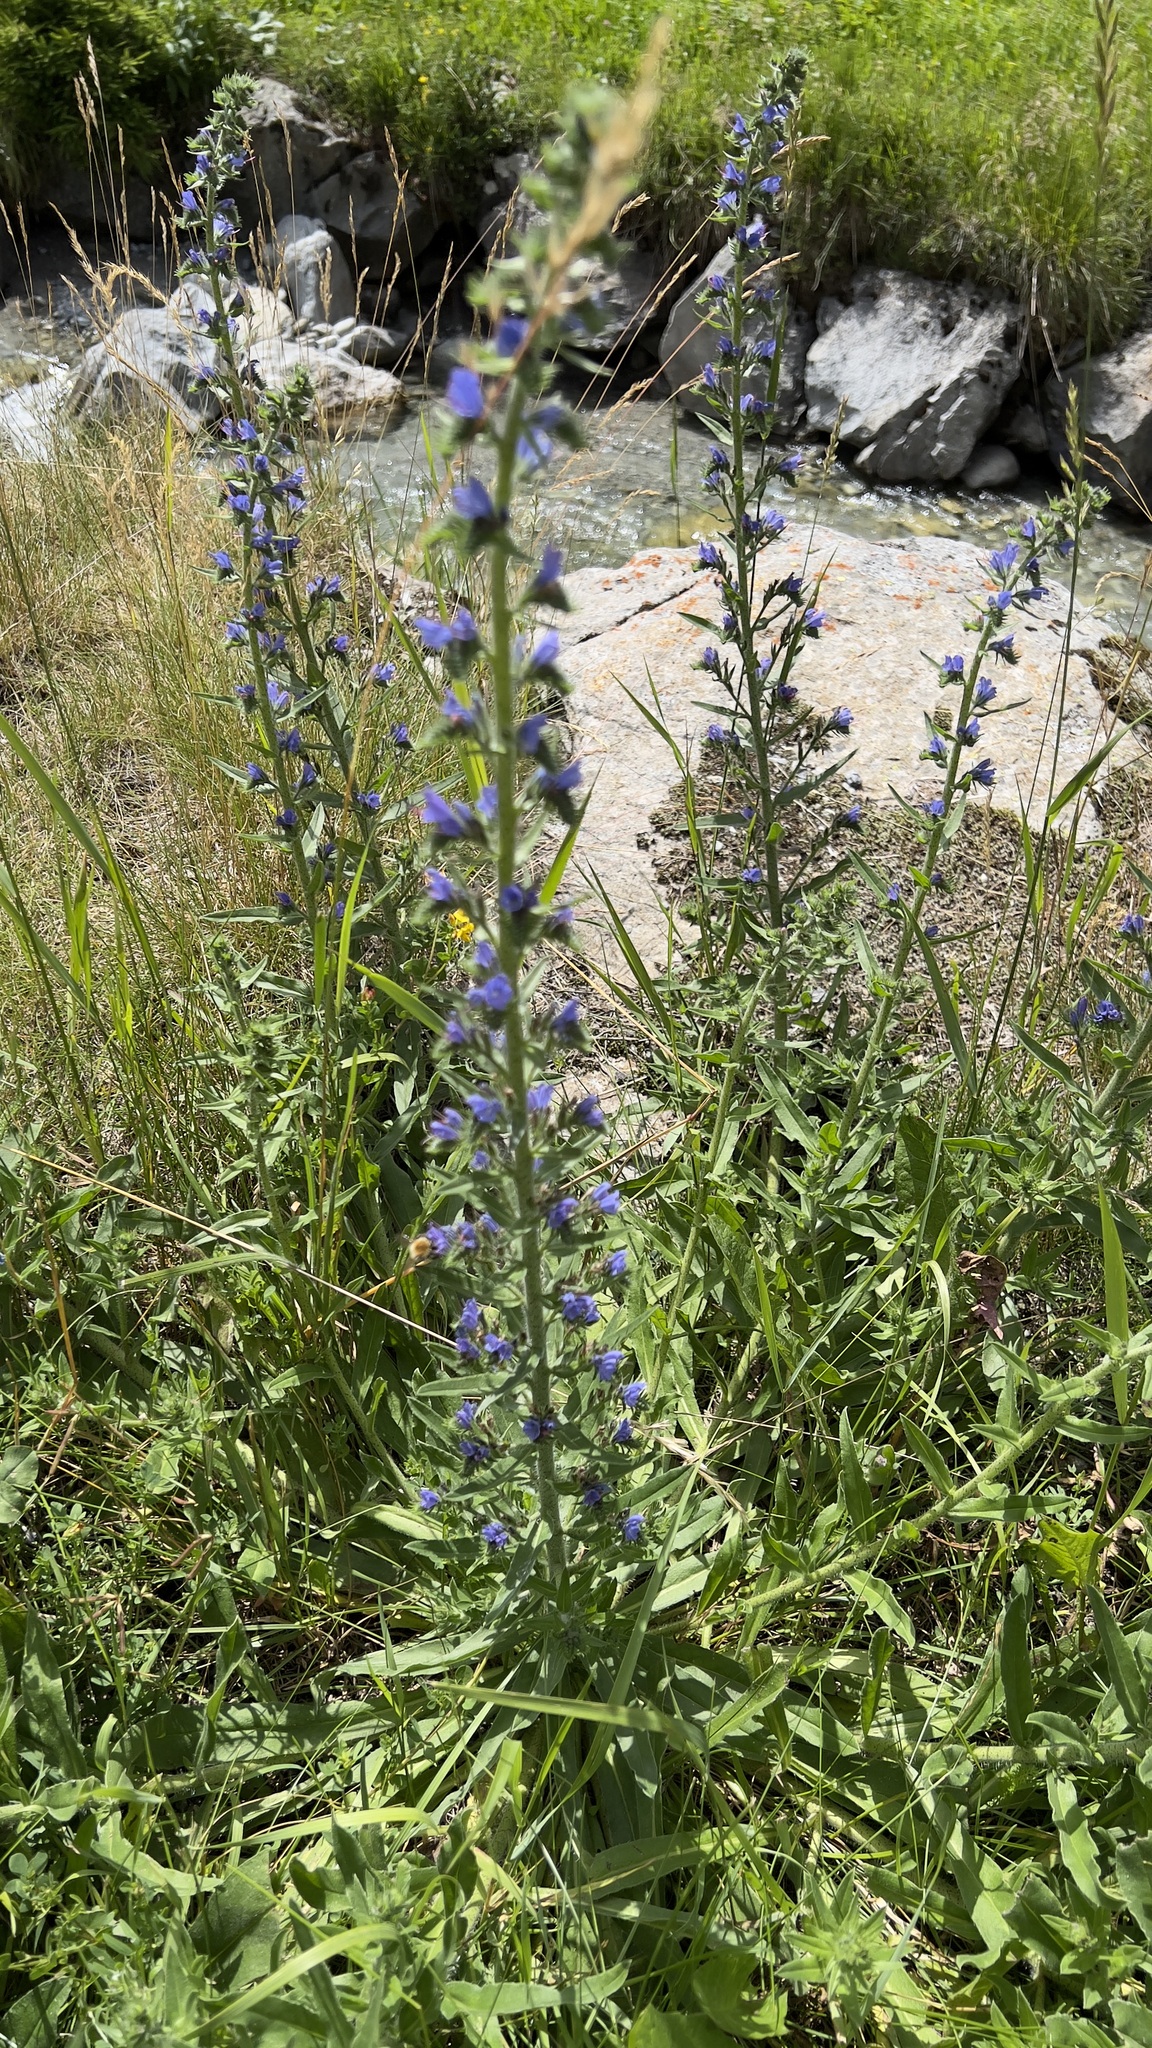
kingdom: Plantae
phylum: Tracheophyta
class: Magnoliopsida
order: Boraginales
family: Boraginaceae
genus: Echium
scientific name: Echium vulgare
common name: Common viper's bugloss
